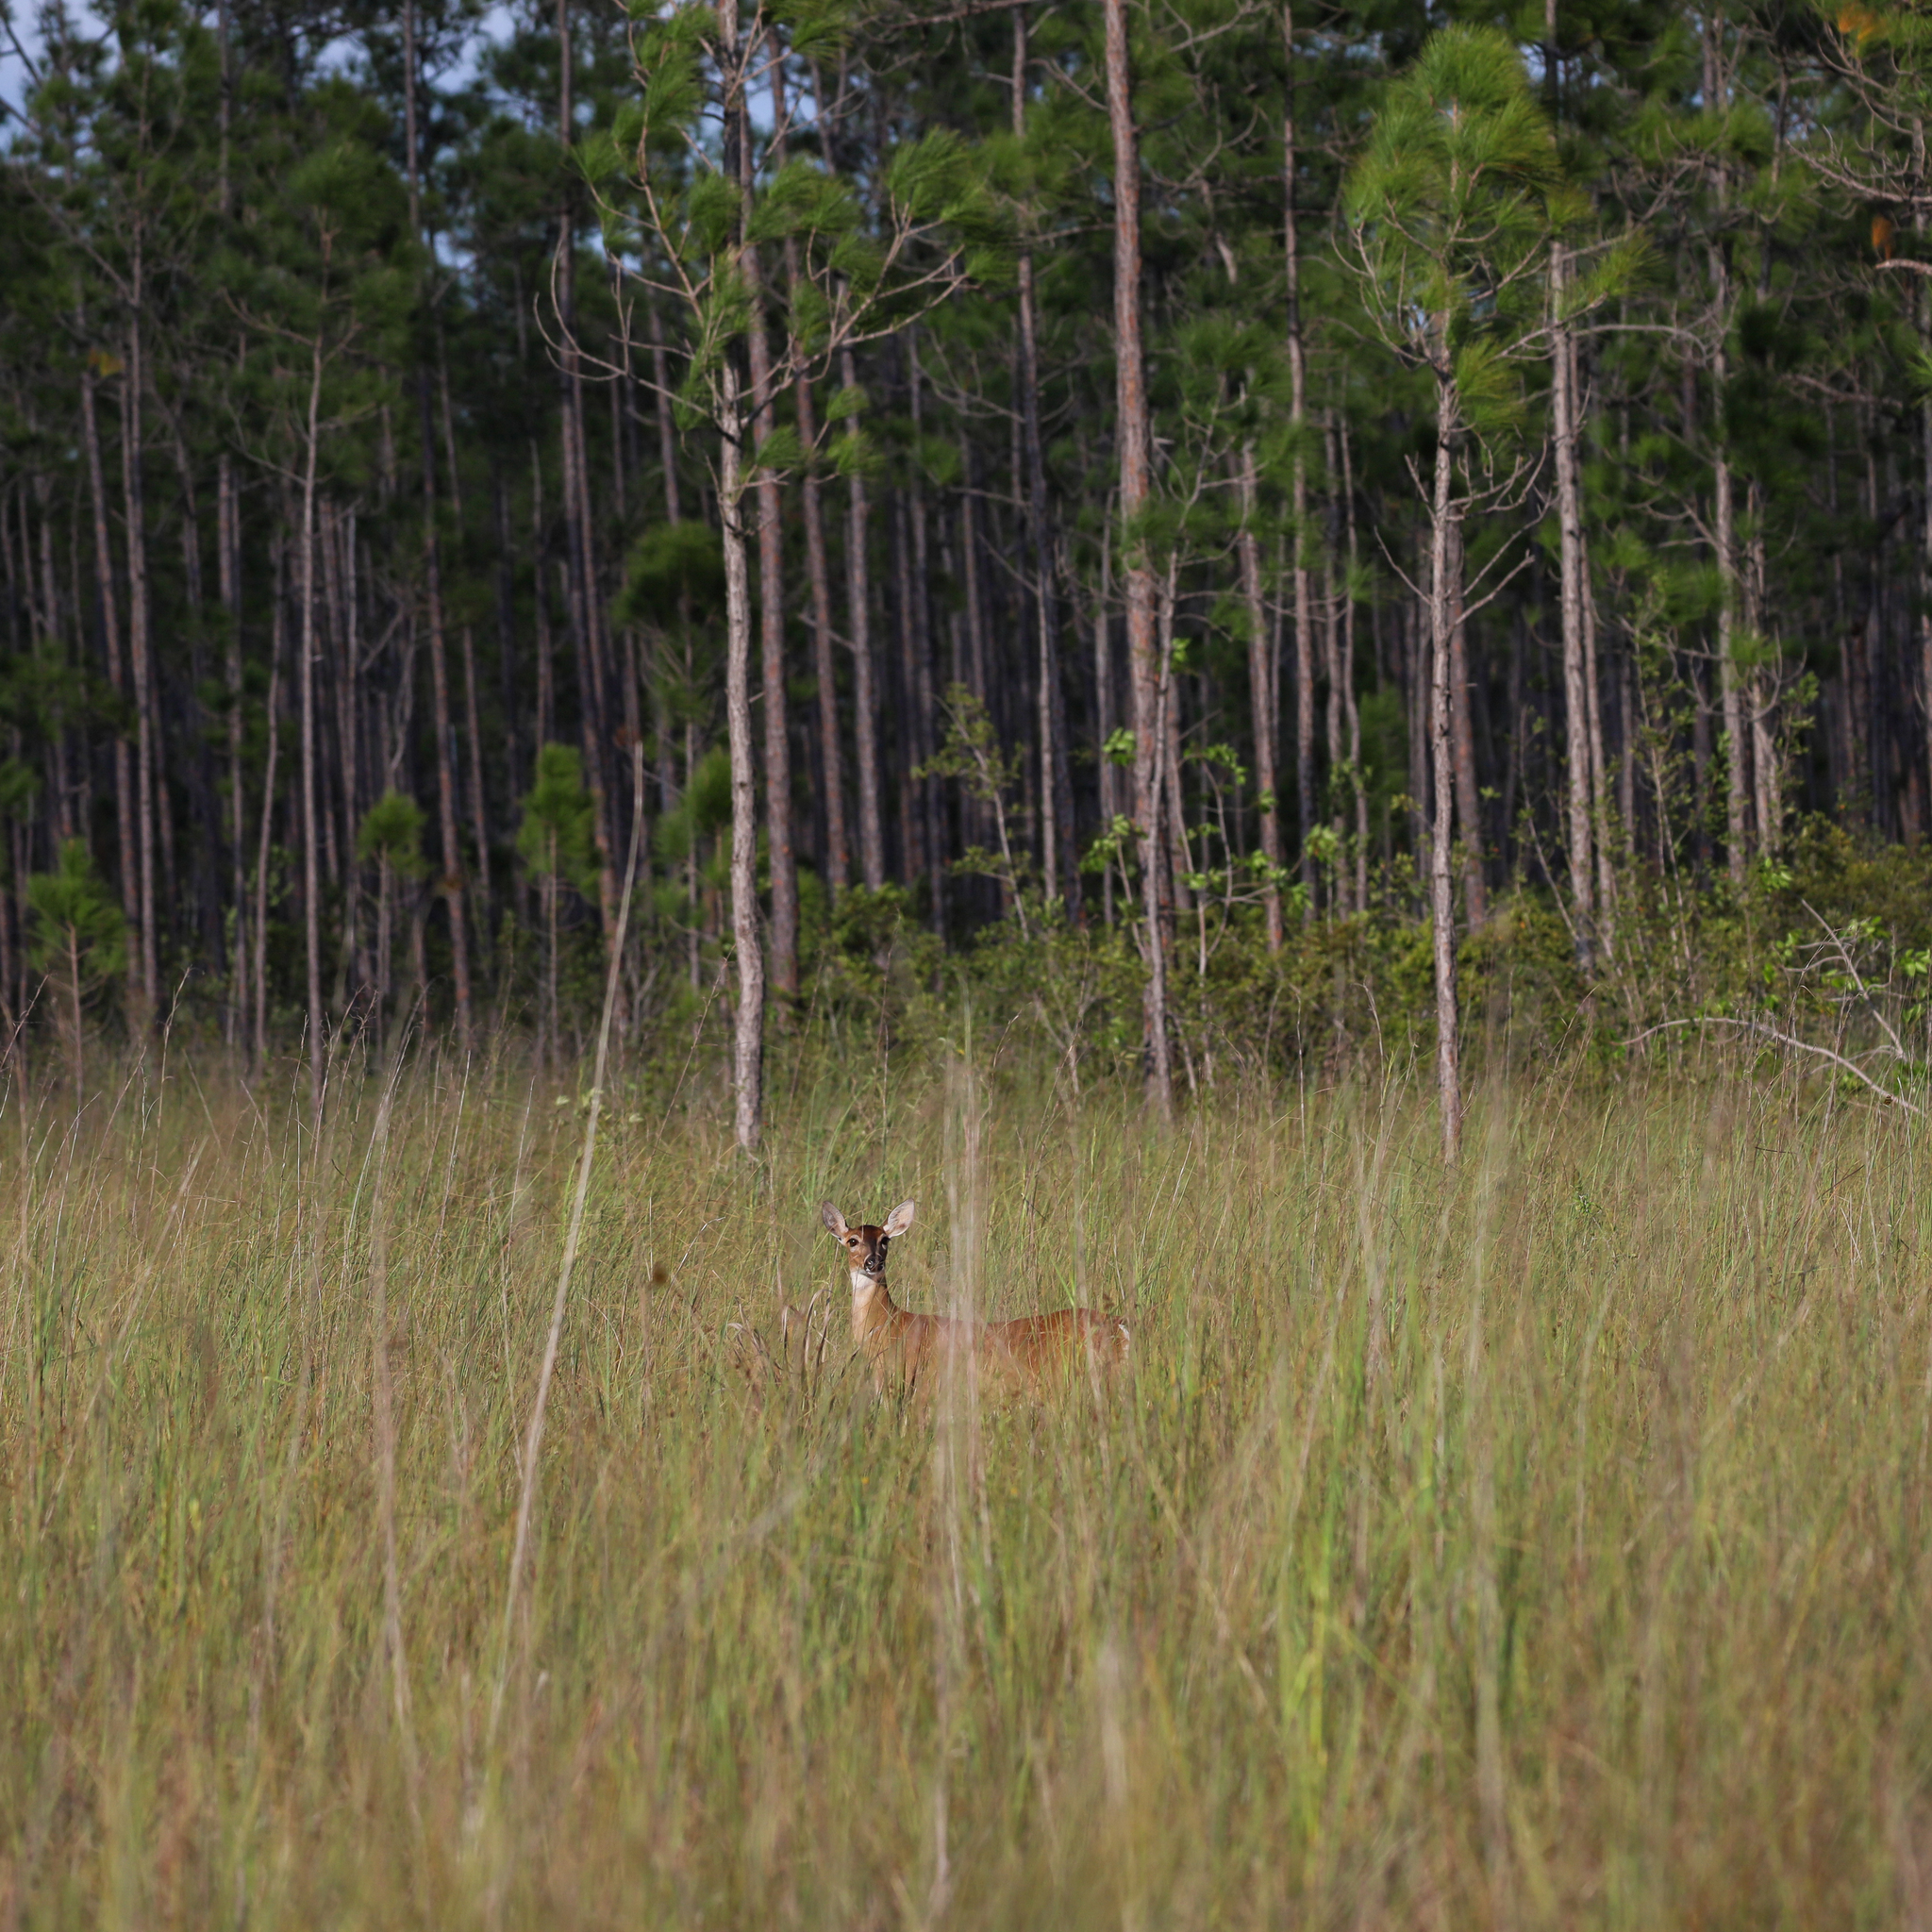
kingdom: Animalia
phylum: Chordata
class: Mammalia
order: Artiodactyla
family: Cervidae
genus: Odocoileus
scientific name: Odocoileus virginianus
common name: White-tailed deer
